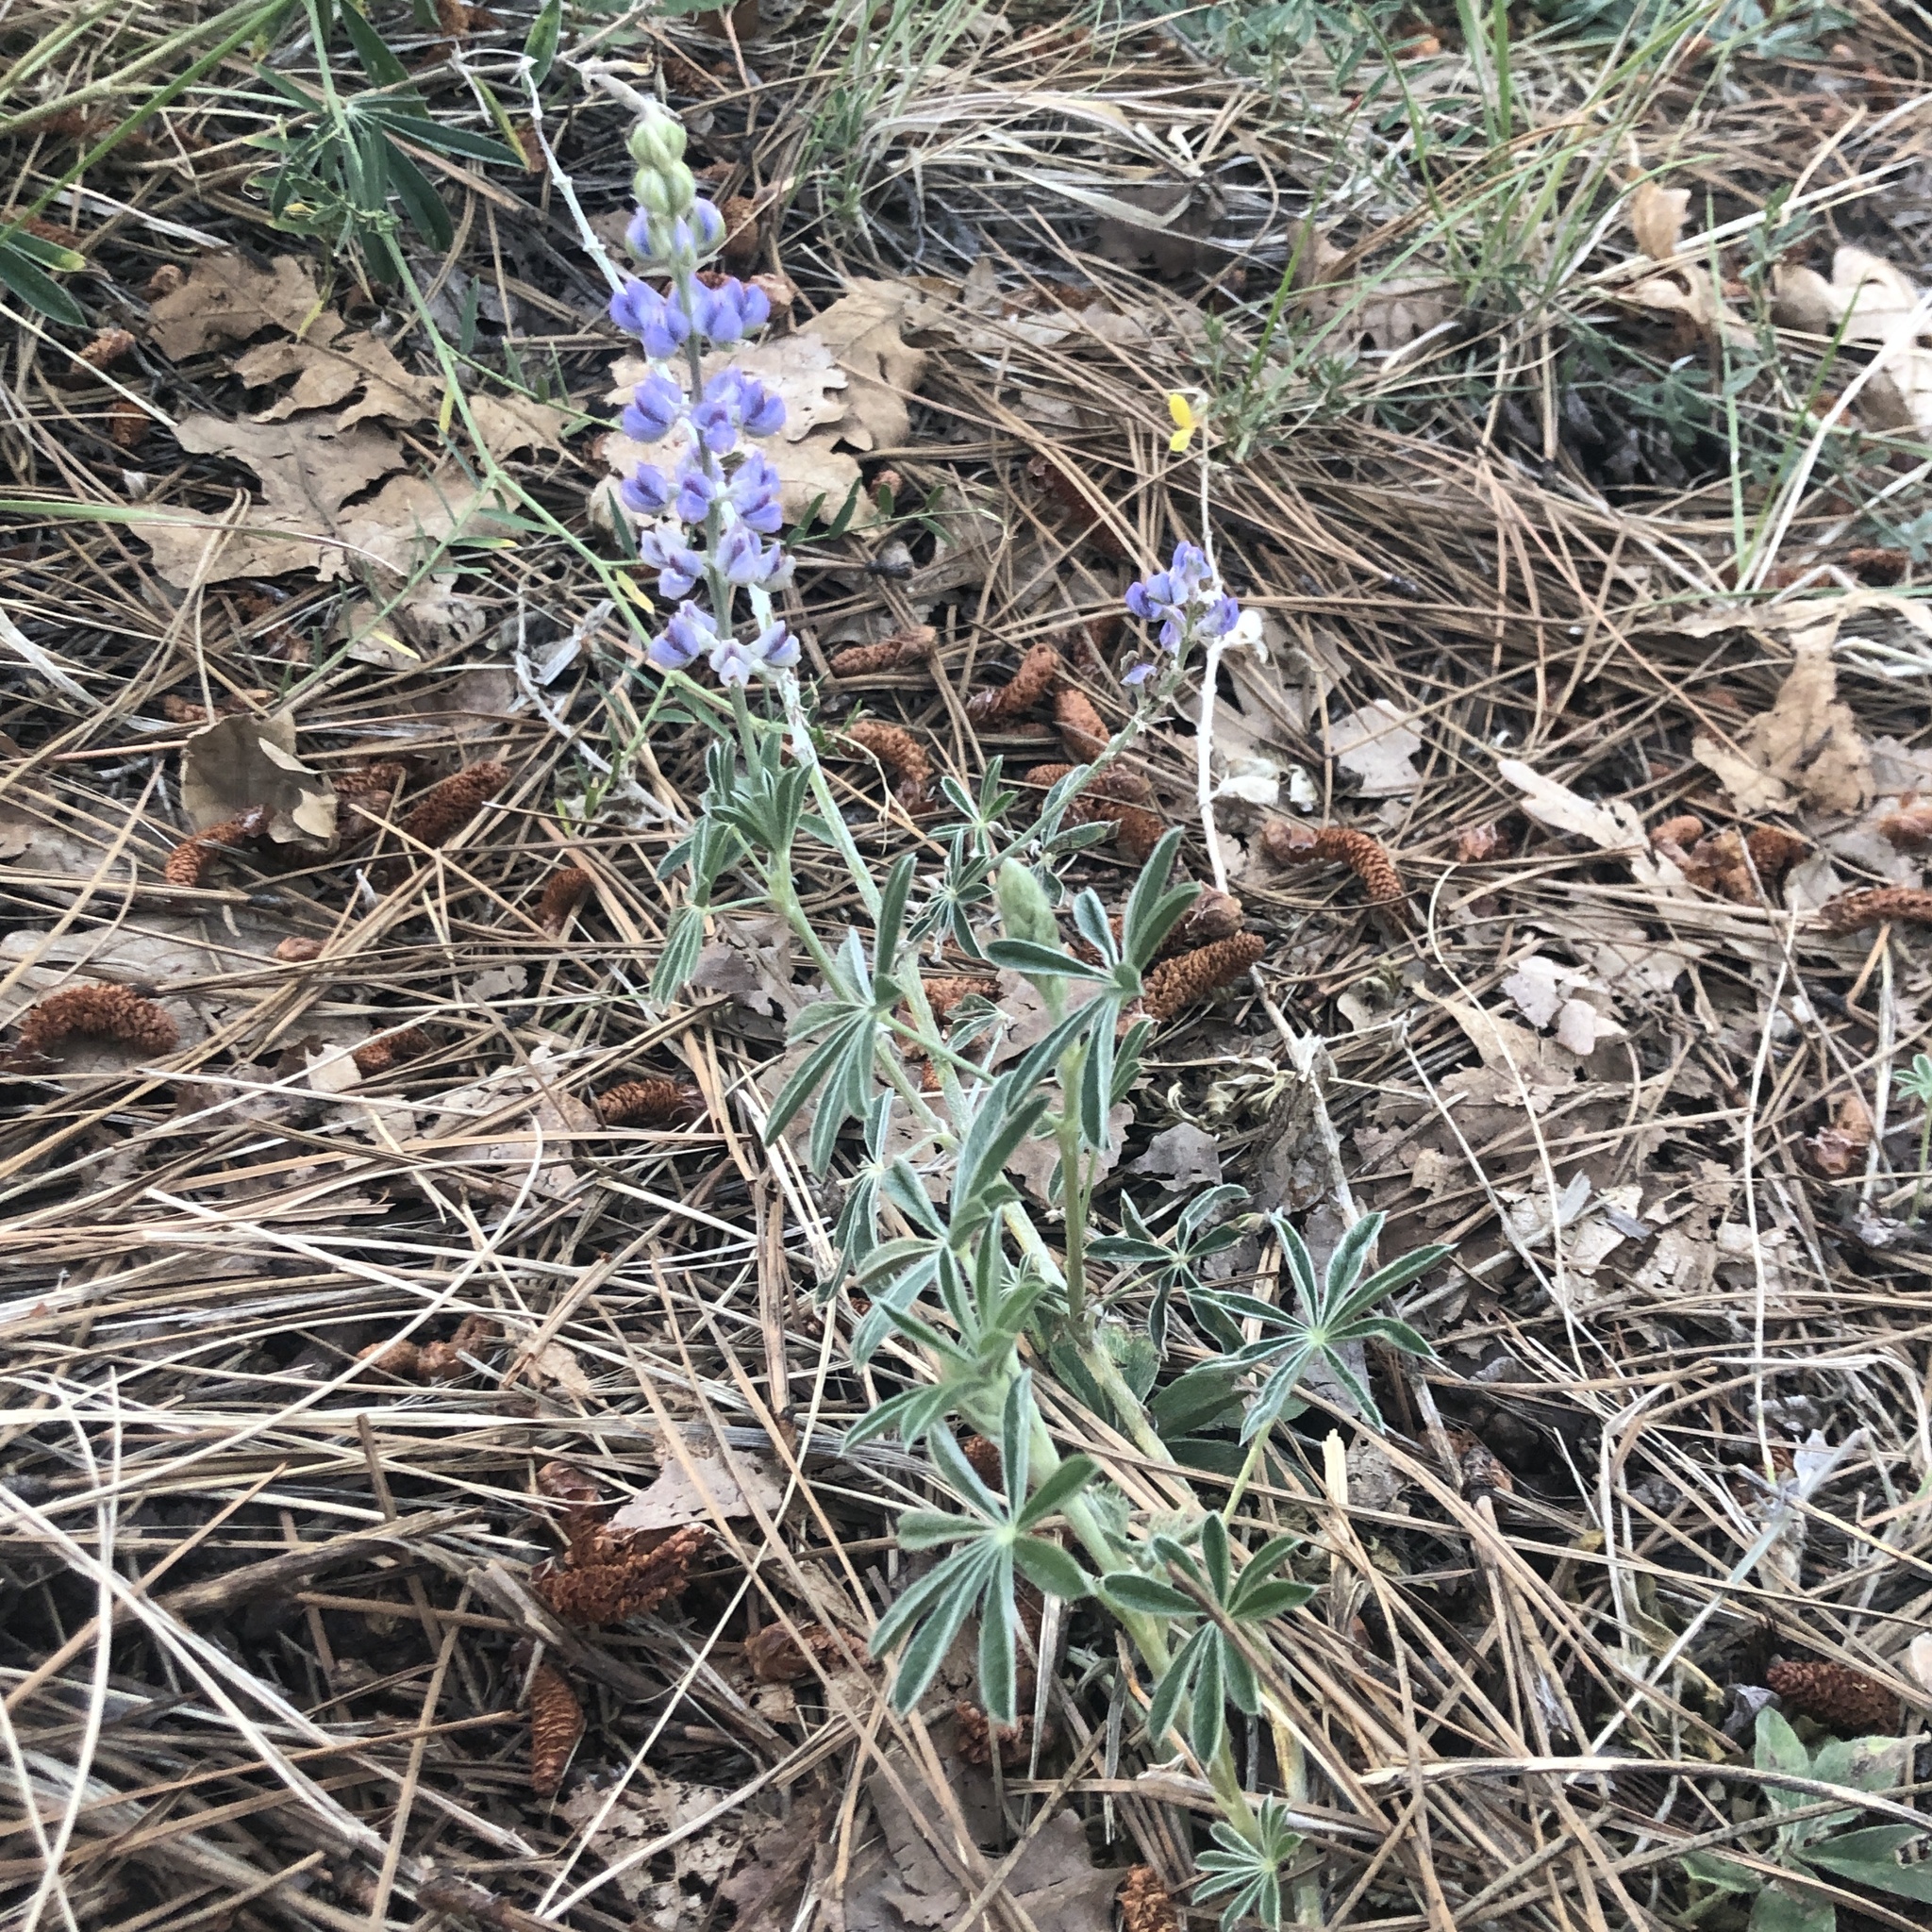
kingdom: Plantae
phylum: Tracheophyta
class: Magnoliopsida
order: Fabales
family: Fabaceae
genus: Lupinus
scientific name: Lupinus argenteus
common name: Silvery lupine
